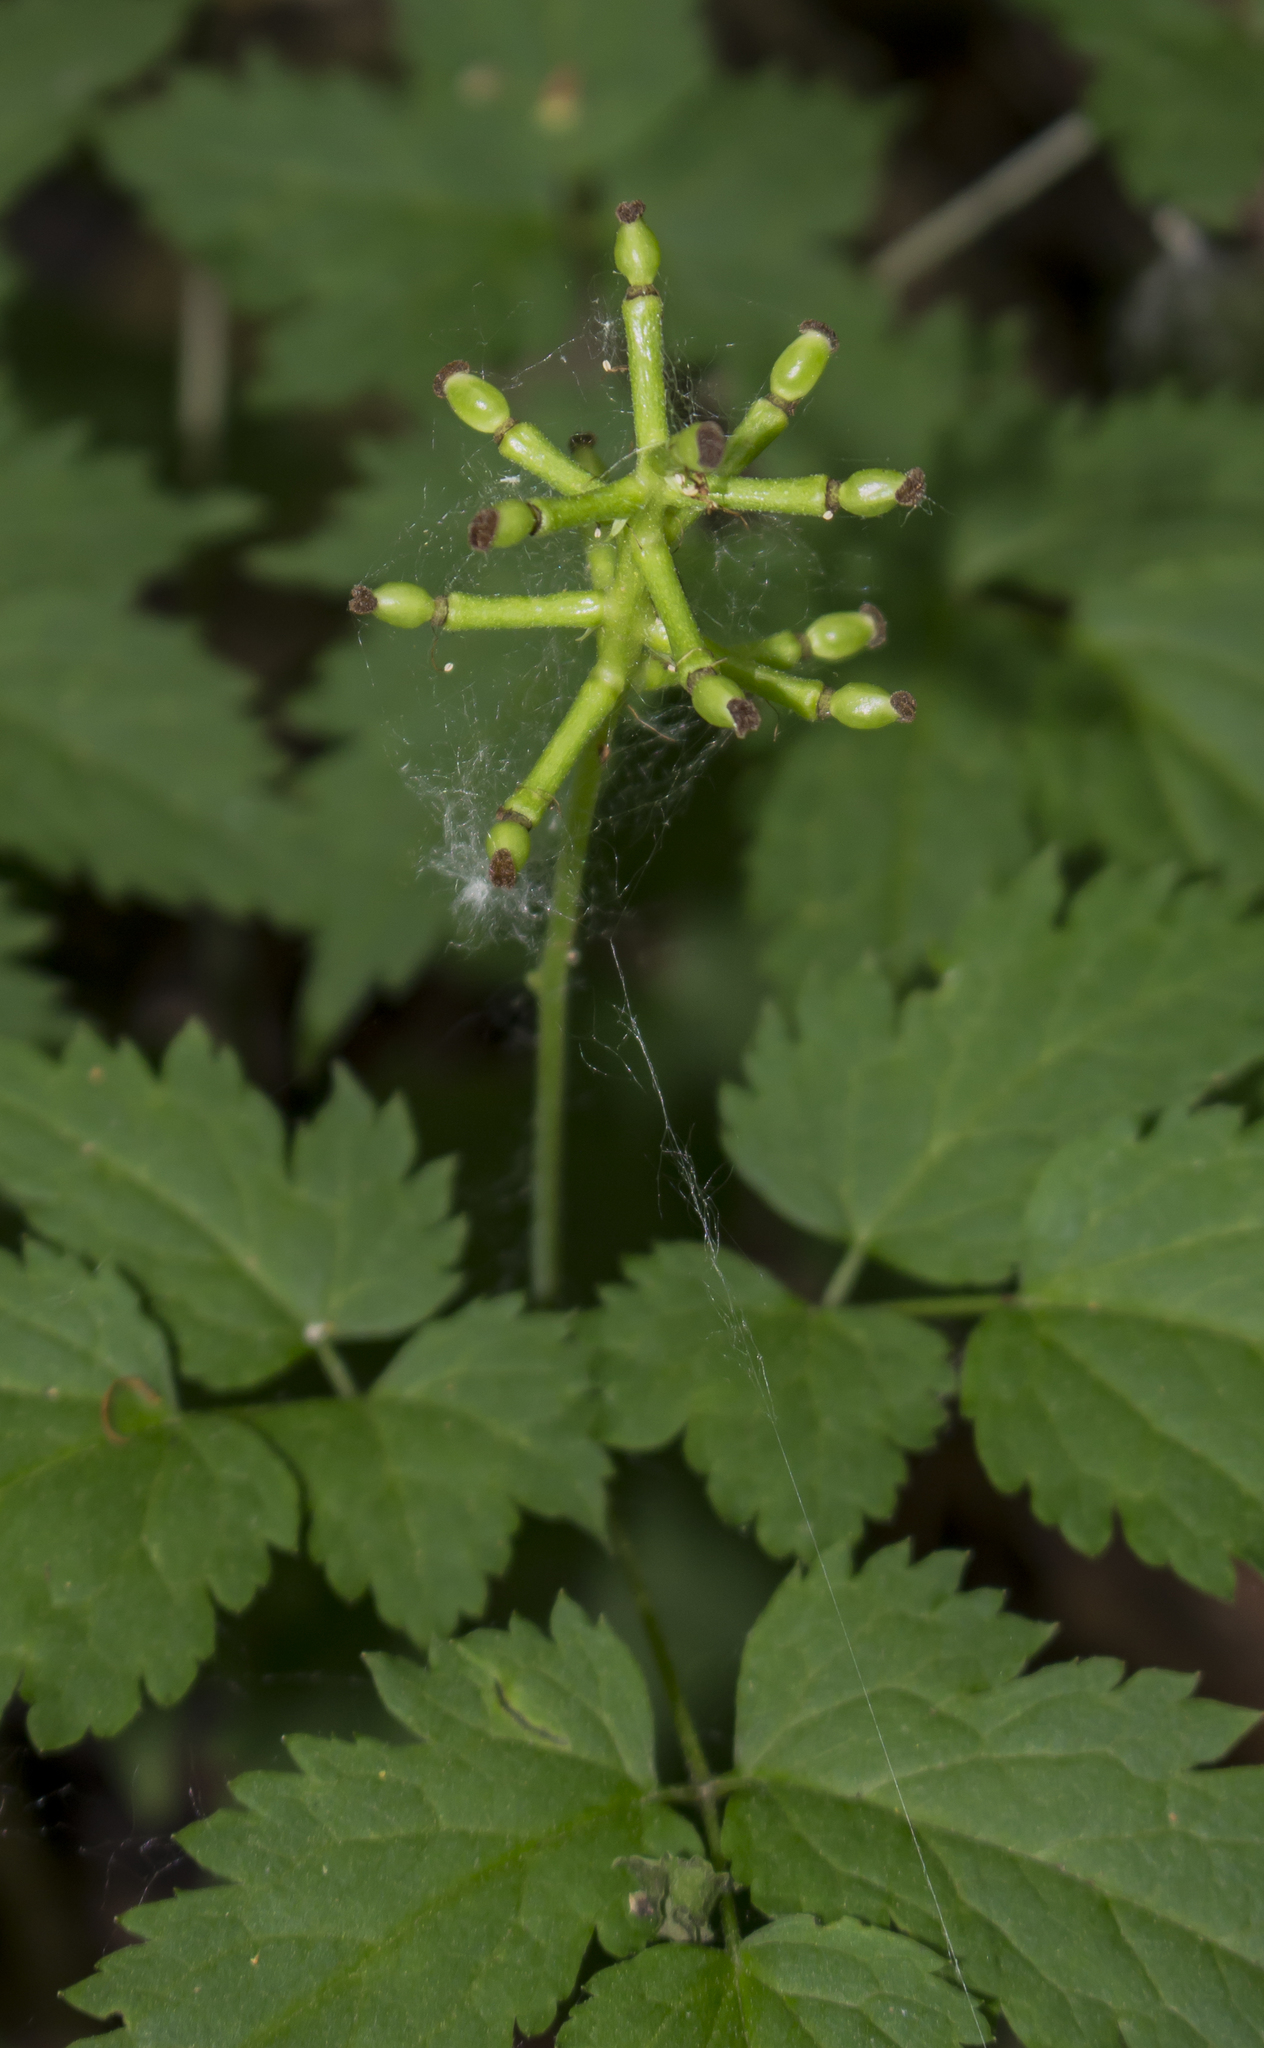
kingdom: Plantae
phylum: Tracheophyta
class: Magnoliopsida
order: Ranunculales
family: Ranunculaceae
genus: Actaea
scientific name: Actaea pachypoda
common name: Doll's-eyes
